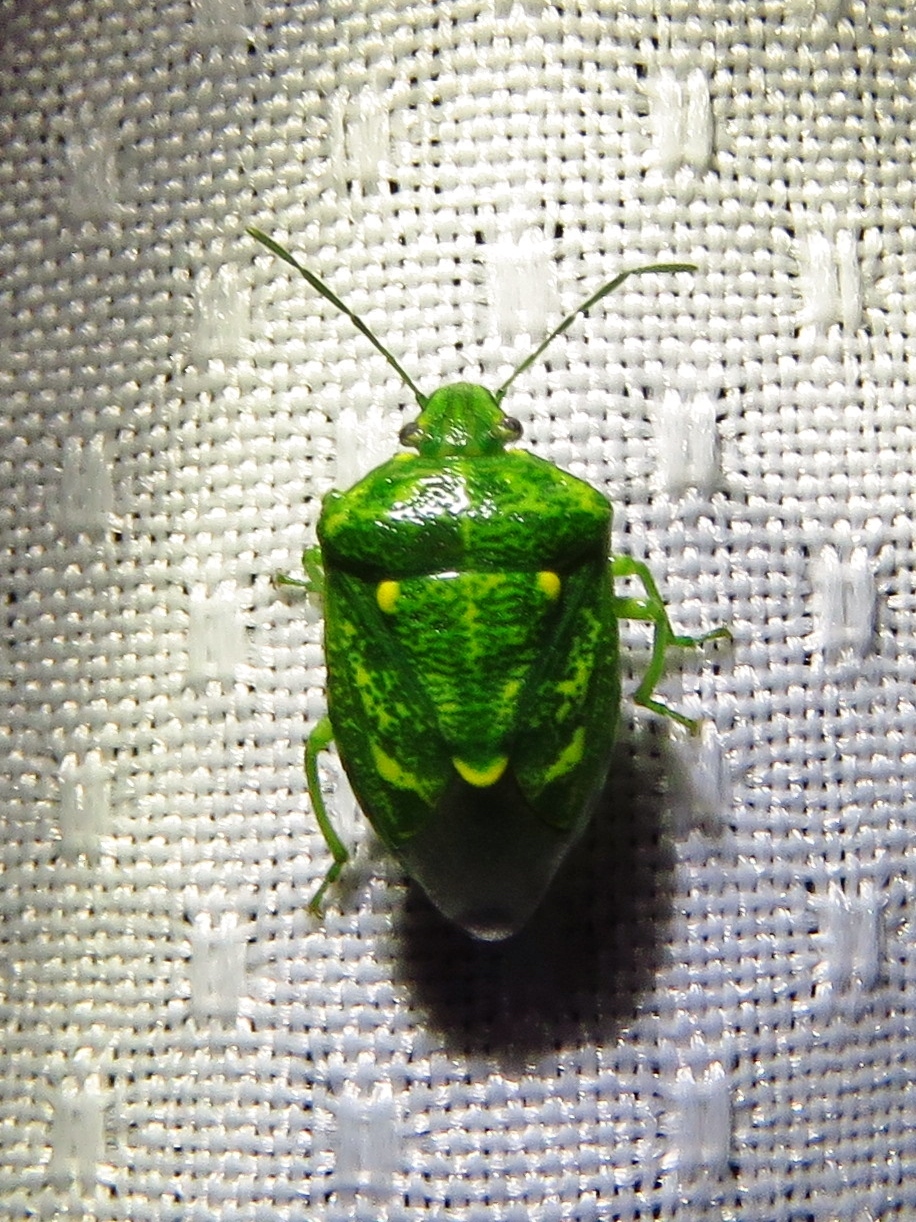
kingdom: Animalia
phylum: Arthropoda
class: Insecta
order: Hemiptera
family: Pentatomidae
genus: Banasa
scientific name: Banasa euchlora
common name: Cedar berry bug
